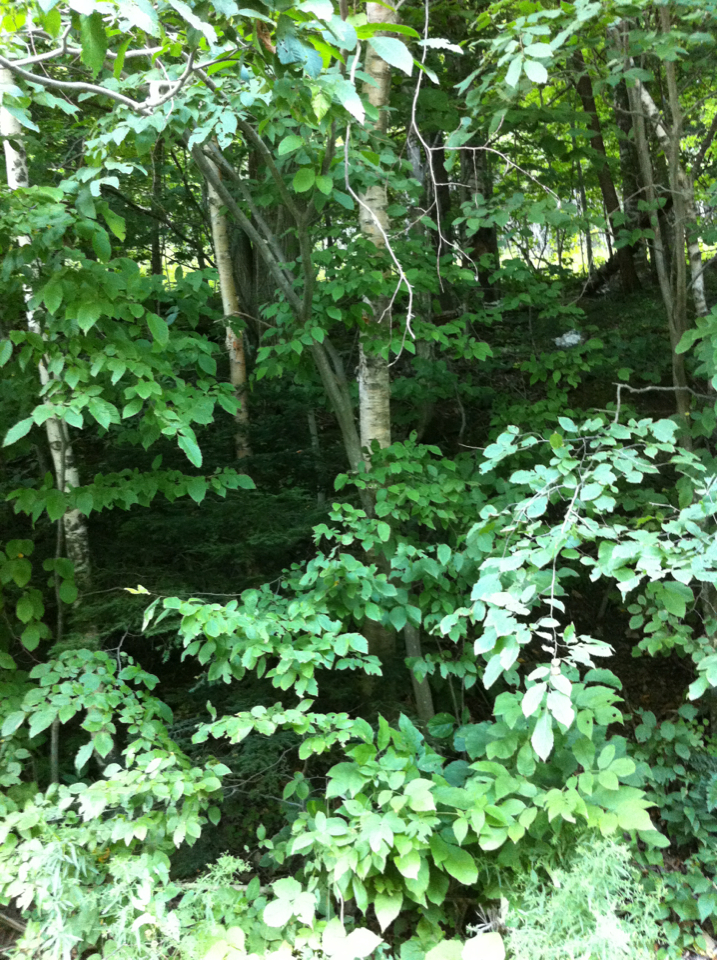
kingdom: Plantae
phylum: Tracheophyta
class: Magnoliopsida
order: Fagales
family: Betulaceae
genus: Betula
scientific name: Betula papyrifera
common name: Paper birch
